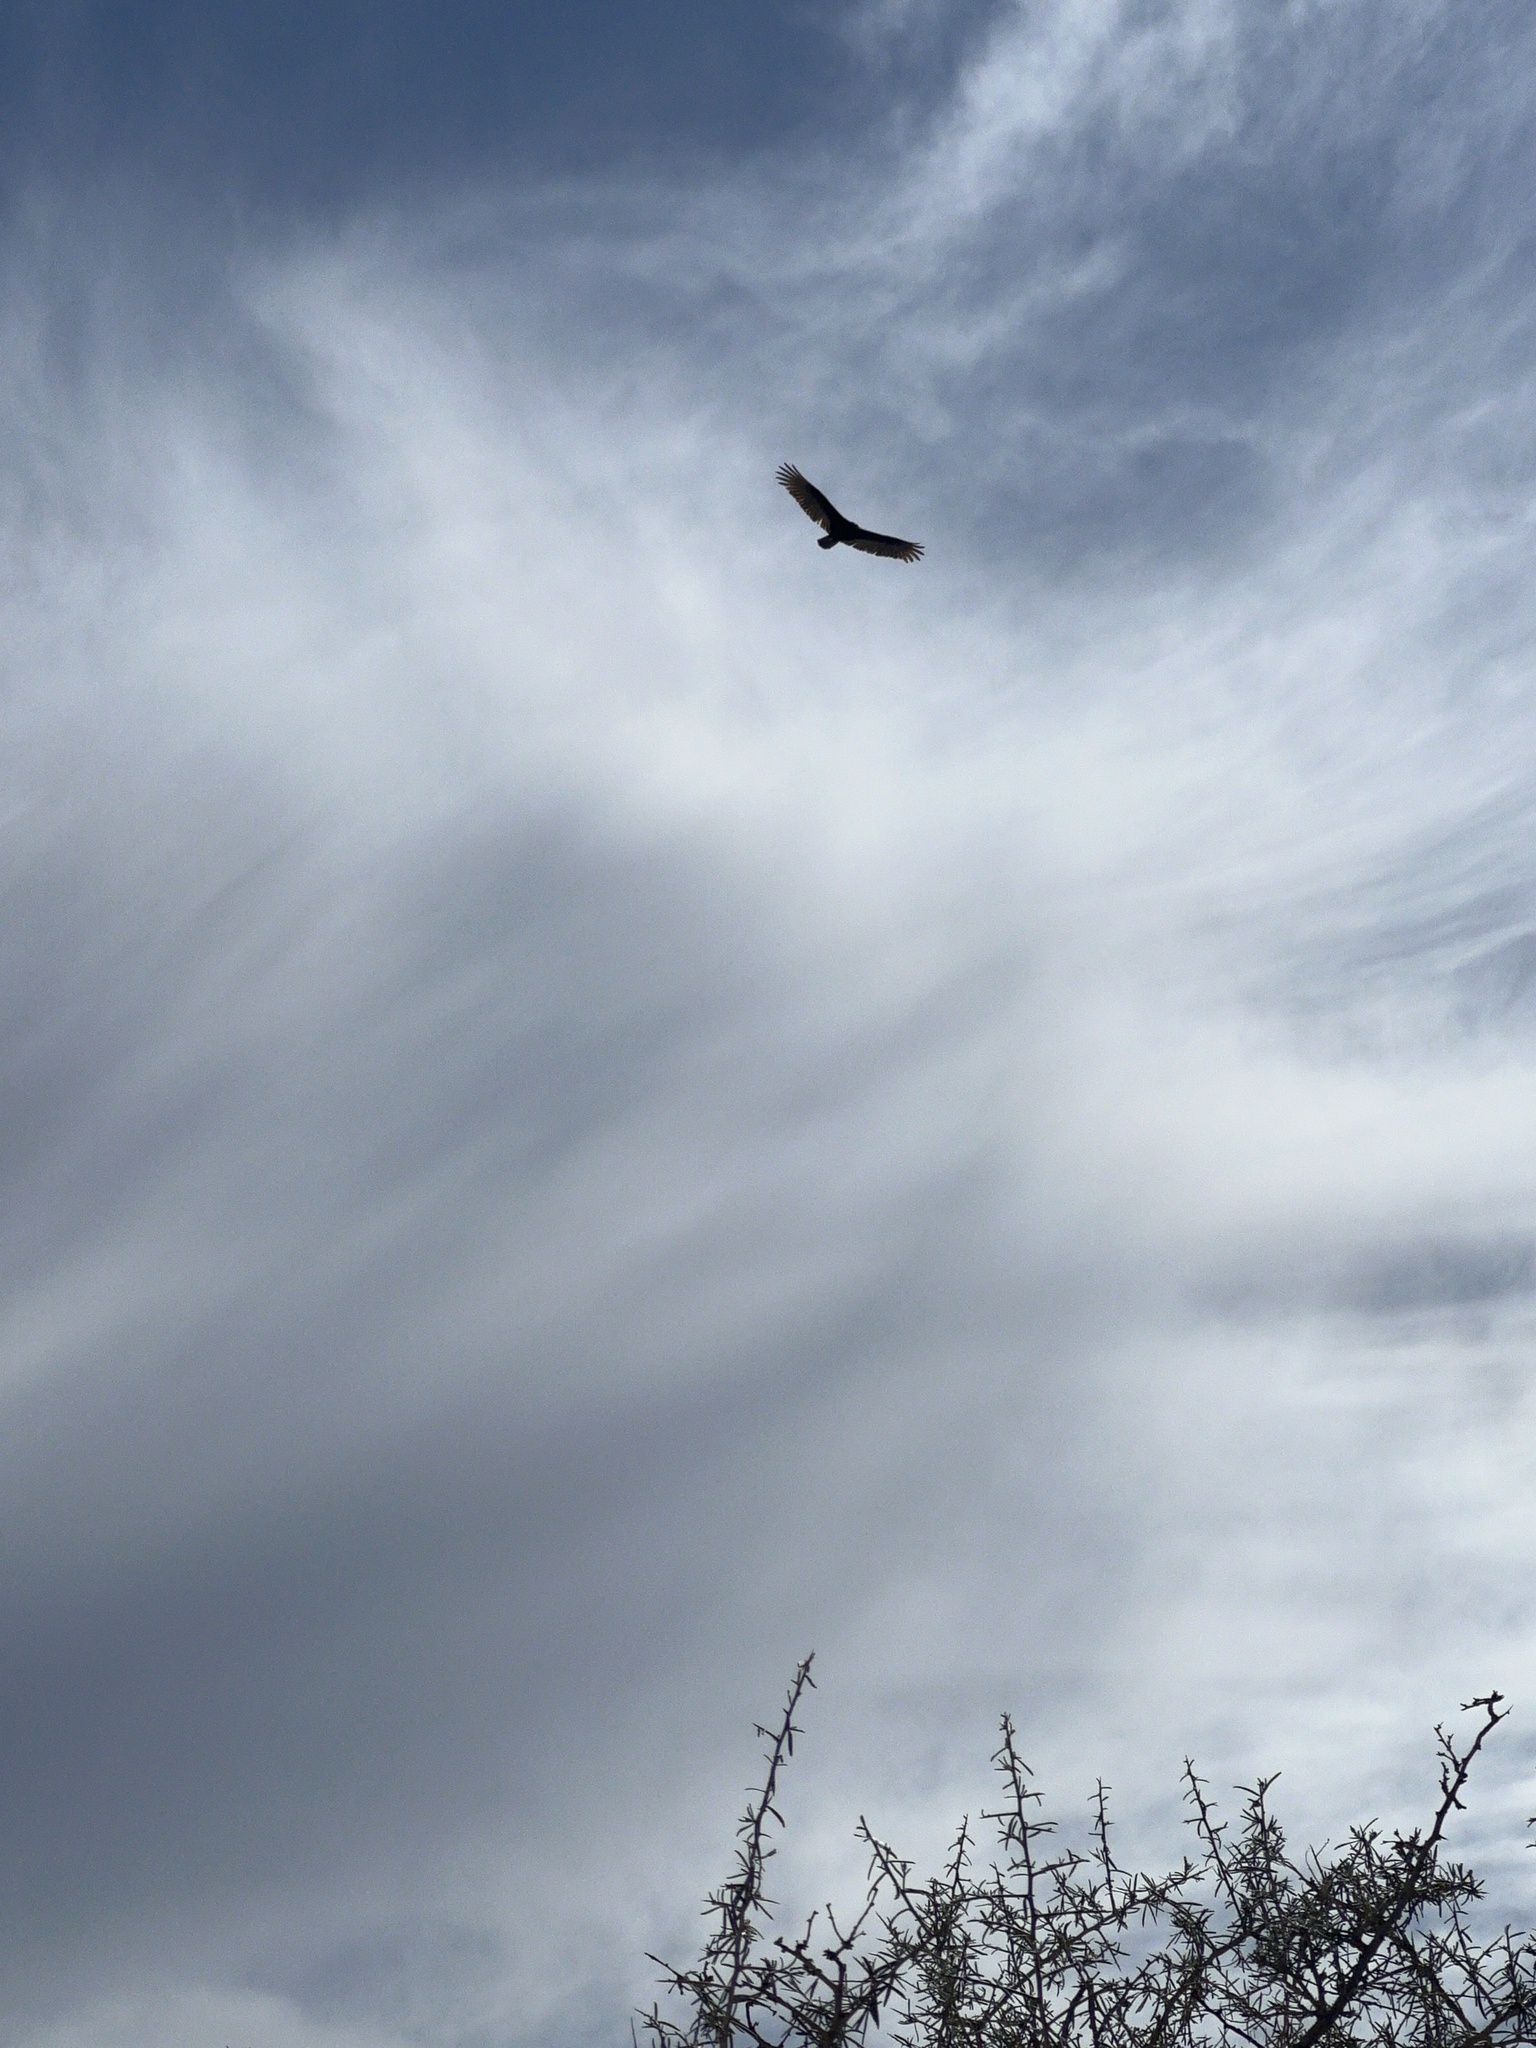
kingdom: Animalia
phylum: Chordata
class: Aves
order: Accipitriformes
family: Cathartidae
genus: Cathartes
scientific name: Cathartes aura
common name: Turkey vulture
